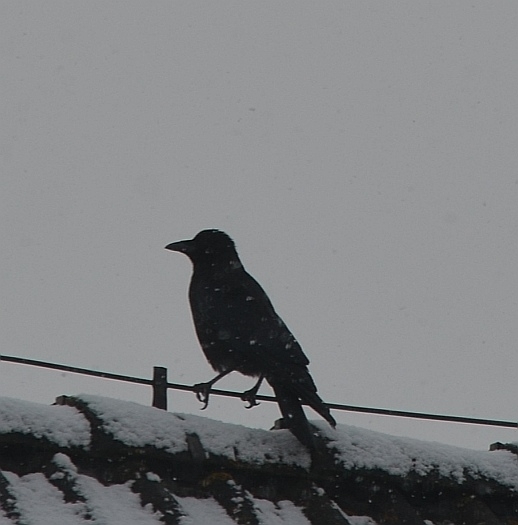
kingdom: Animalia
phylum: Chordata
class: Aves
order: Passeriformes
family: Corvidae
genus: Corvus
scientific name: Corvus corone
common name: Carrion crow
